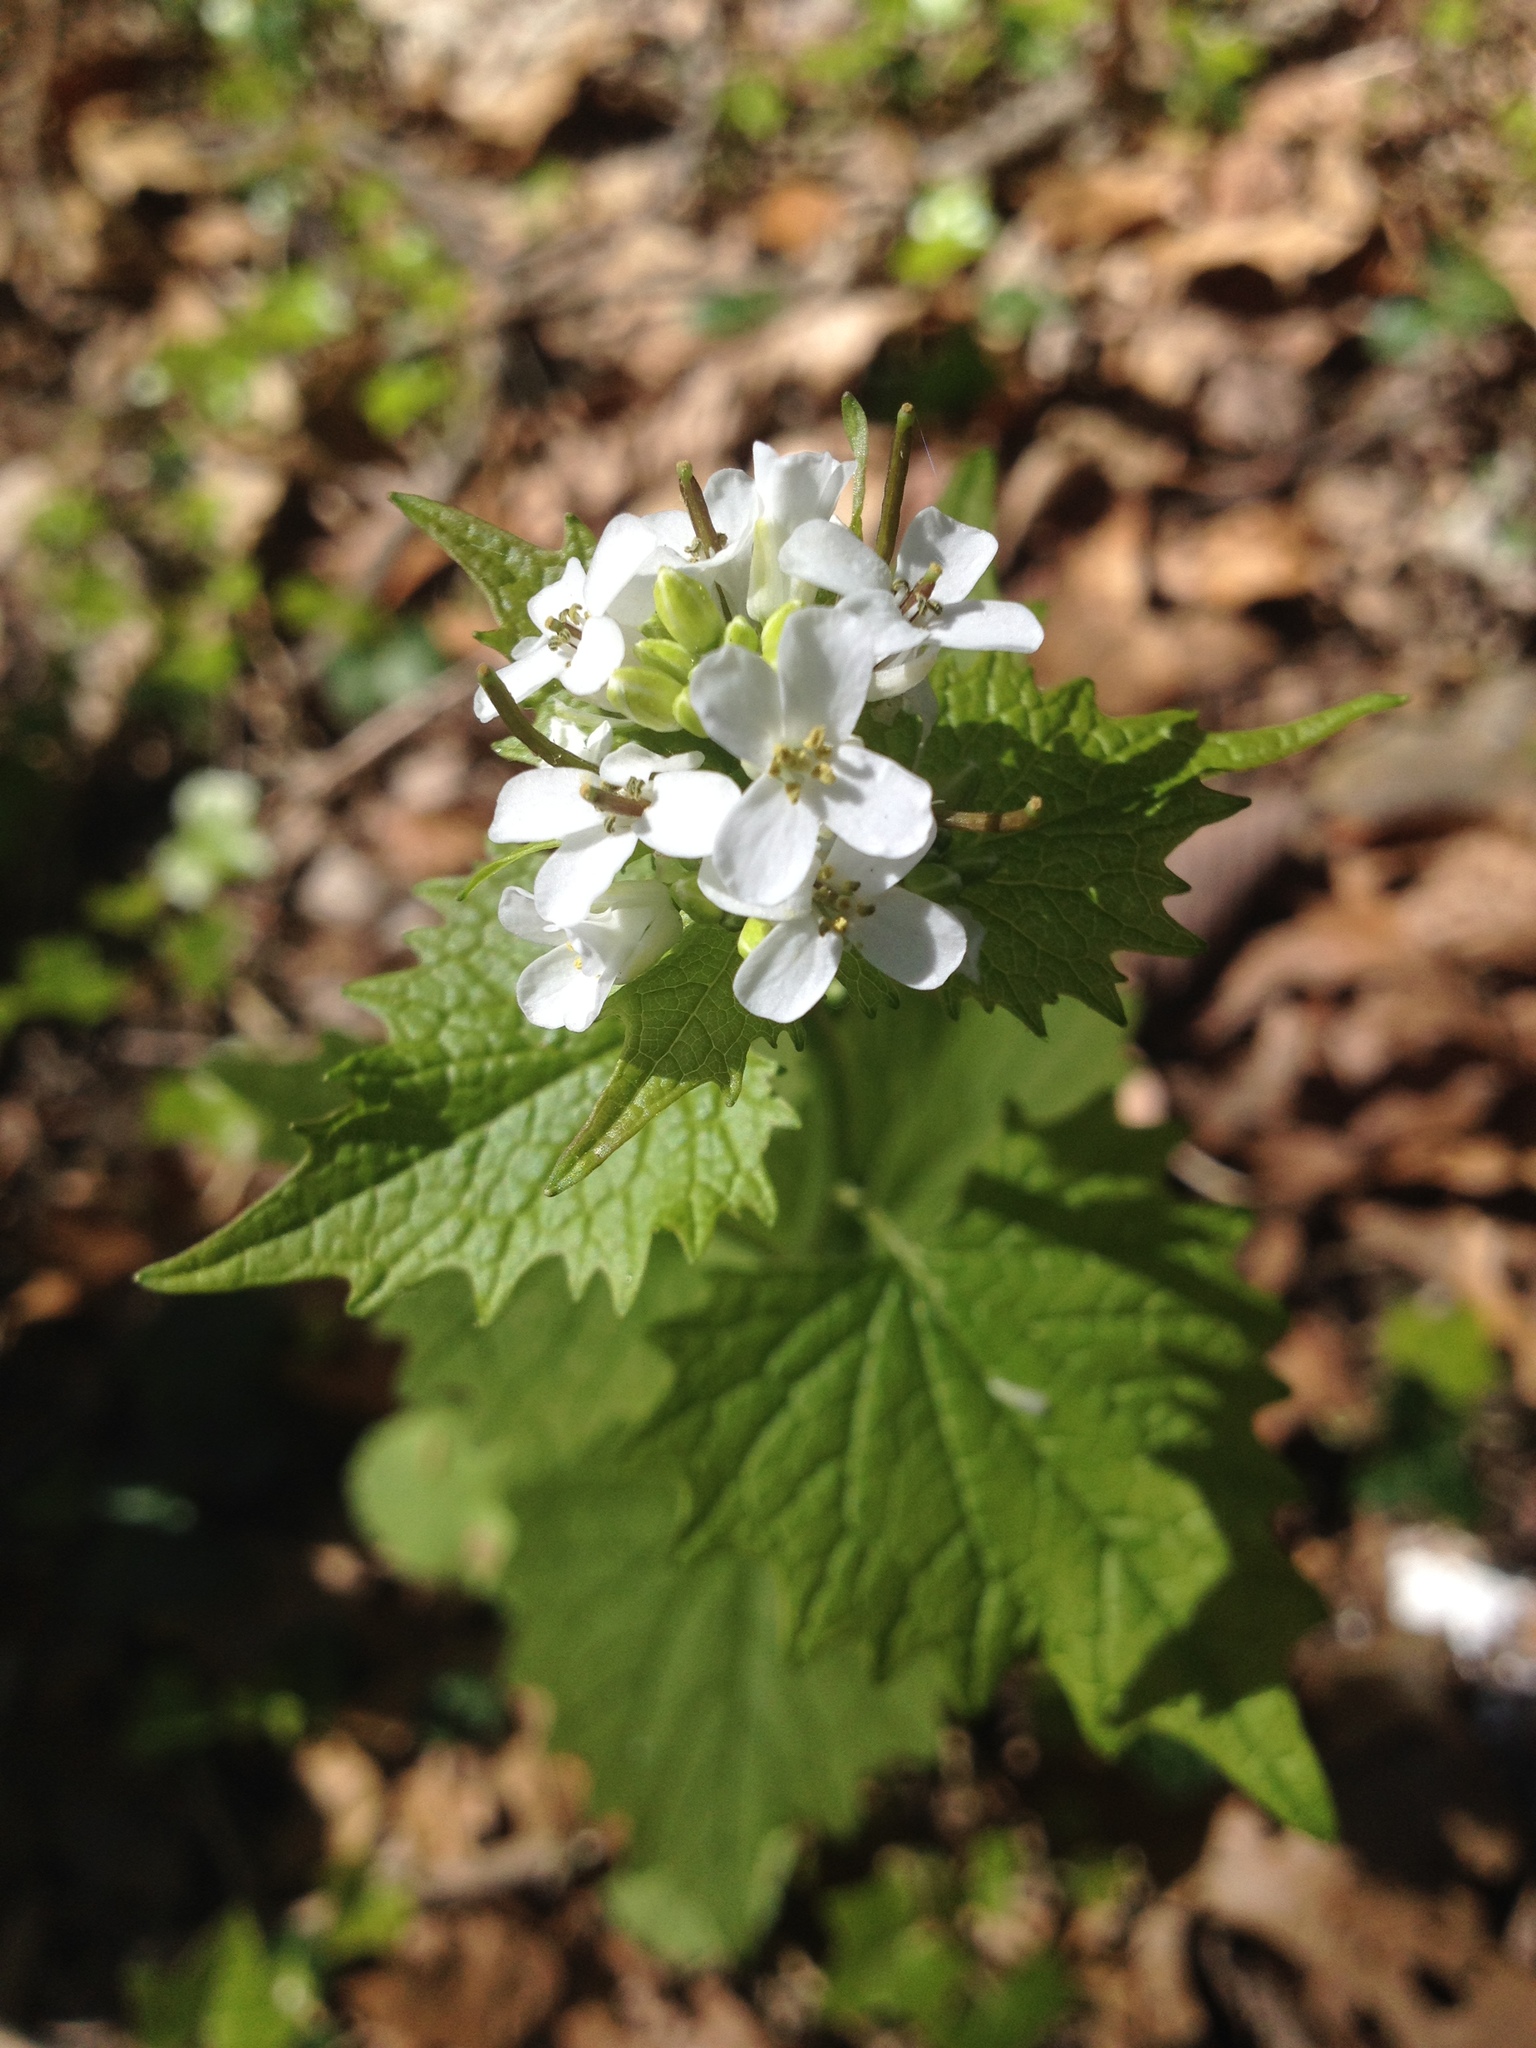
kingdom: Plantae
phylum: Tracheophyta
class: Magnoliopsida
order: Brassicales
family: Brassicaceae
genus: Alliaria
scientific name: Alliaria petiolata
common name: Garlic mustard
